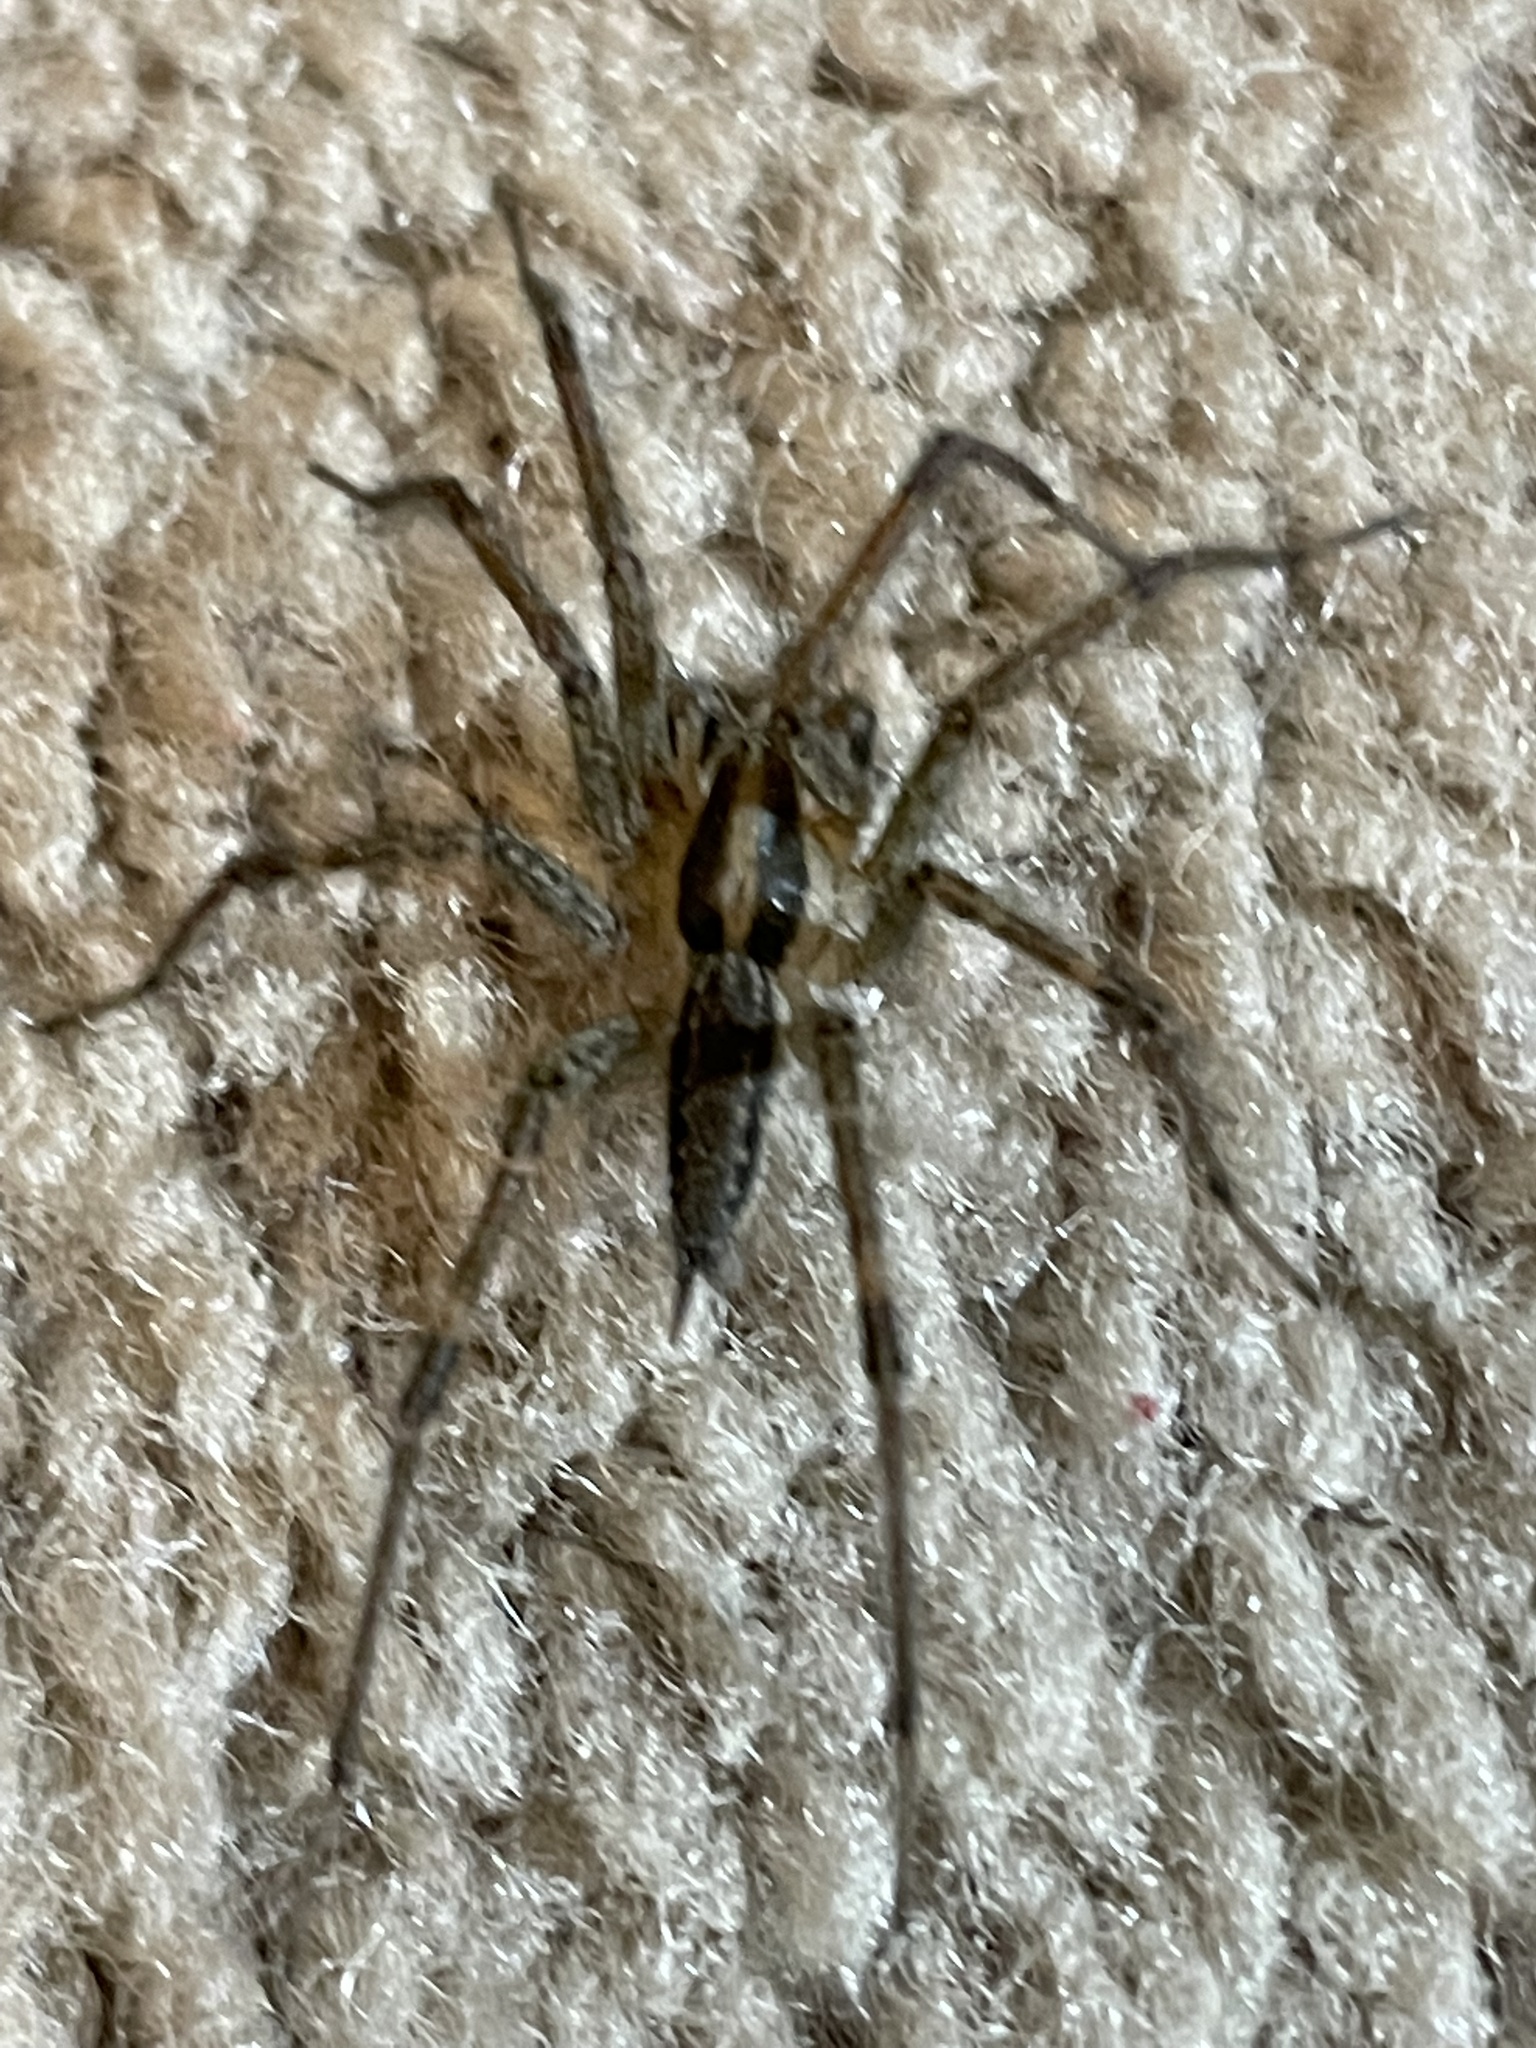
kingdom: Animalia
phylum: Arthropoda
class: Arachnida
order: Araneae
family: Agelenidae
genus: Agelenopsis
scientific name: Agelenopsis
